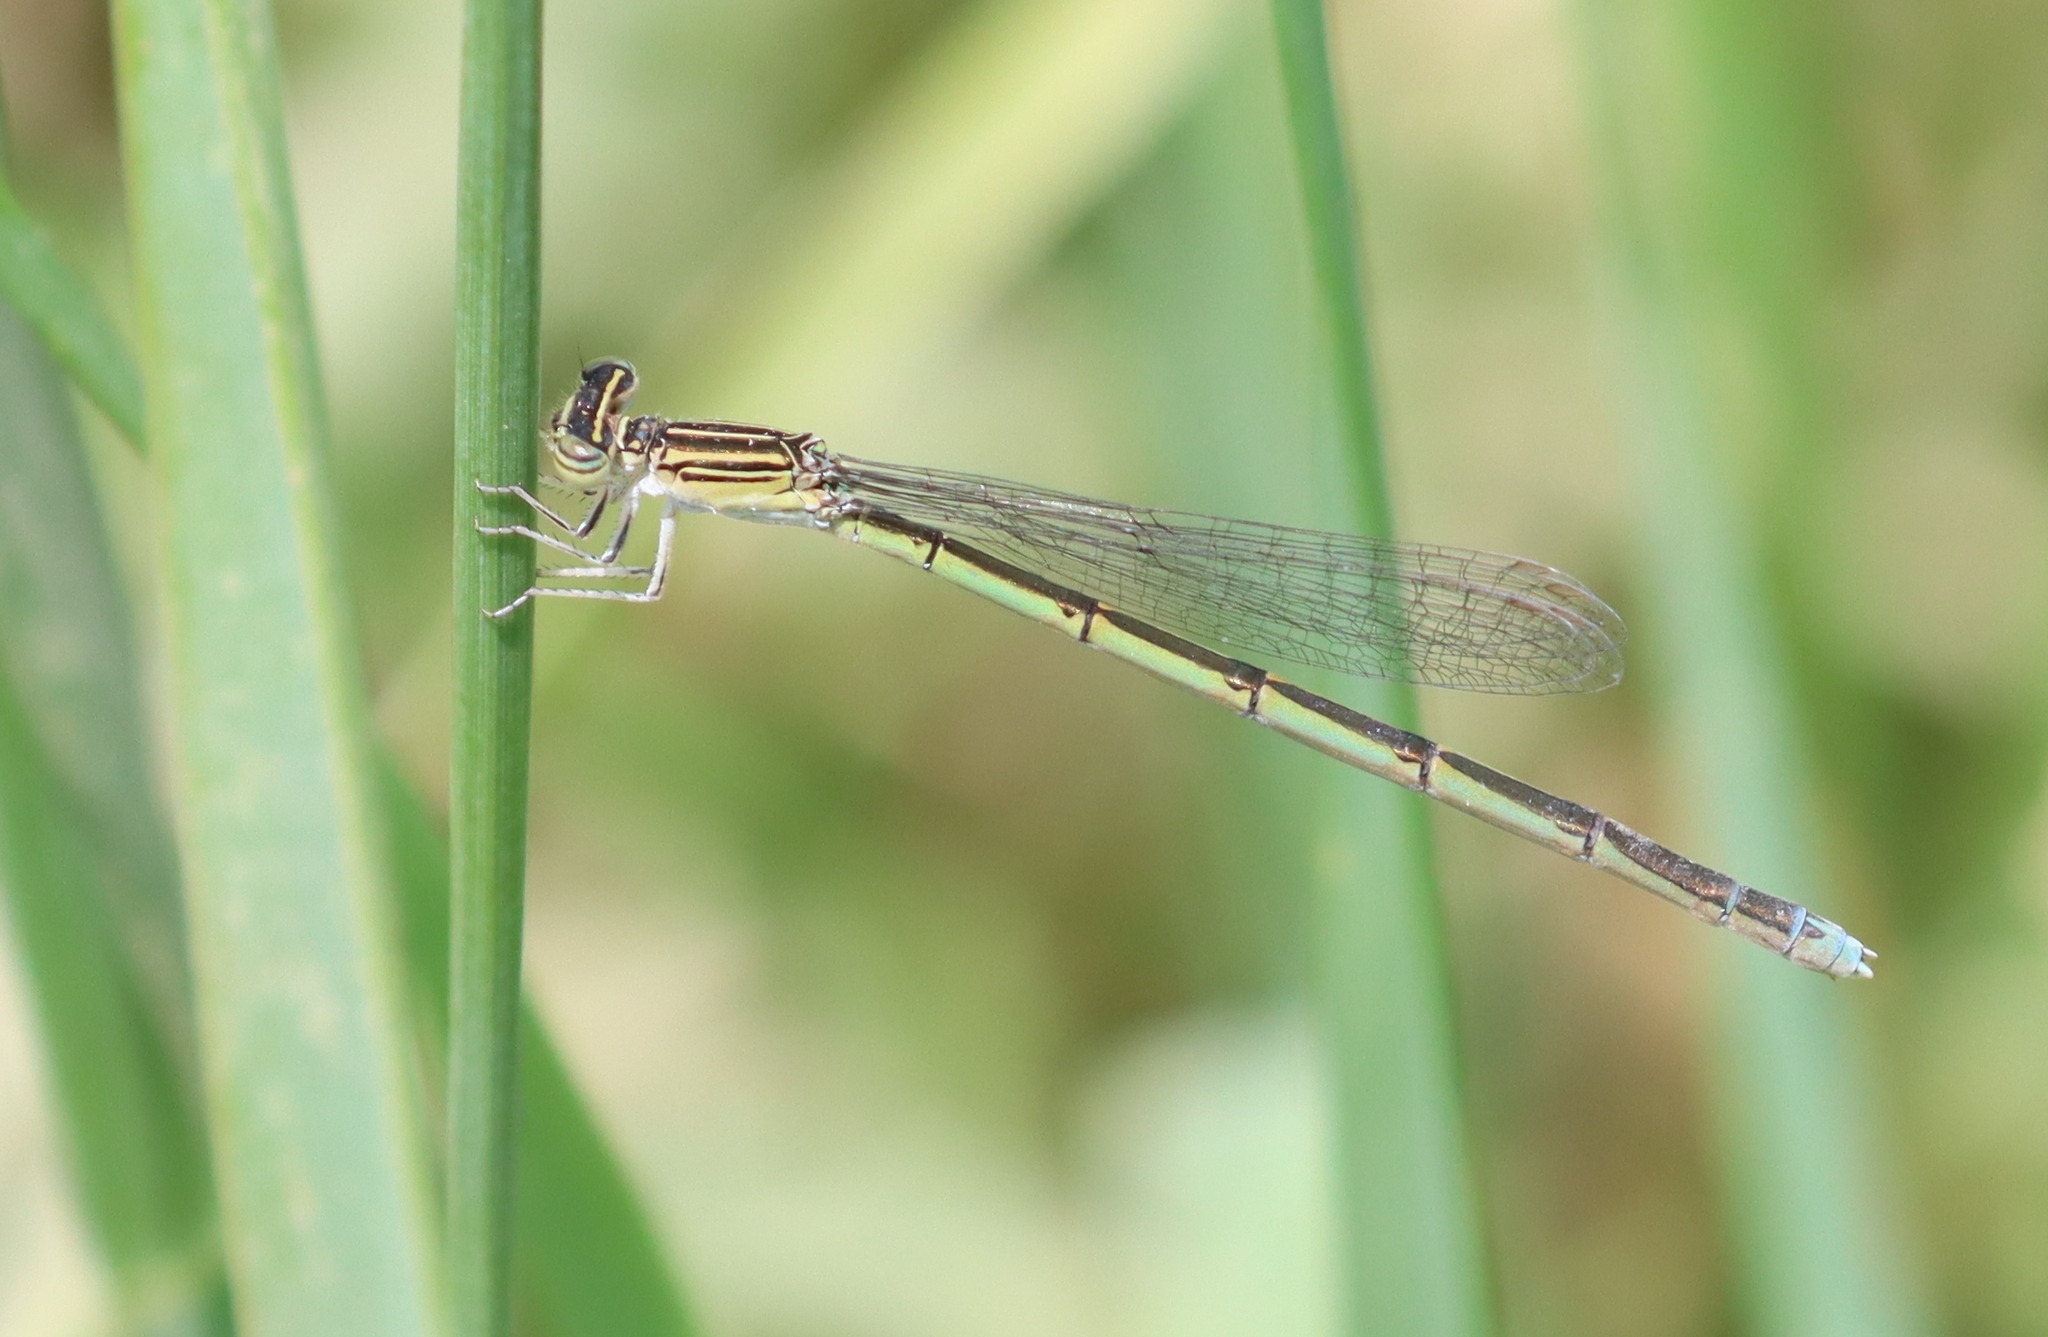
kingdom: Animalia
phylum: Arthropoda
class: Insecta
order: Odonata
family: Coenagrionidae
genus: Enallagma
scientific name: Enallagma basidens
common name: Double-striped bluet
